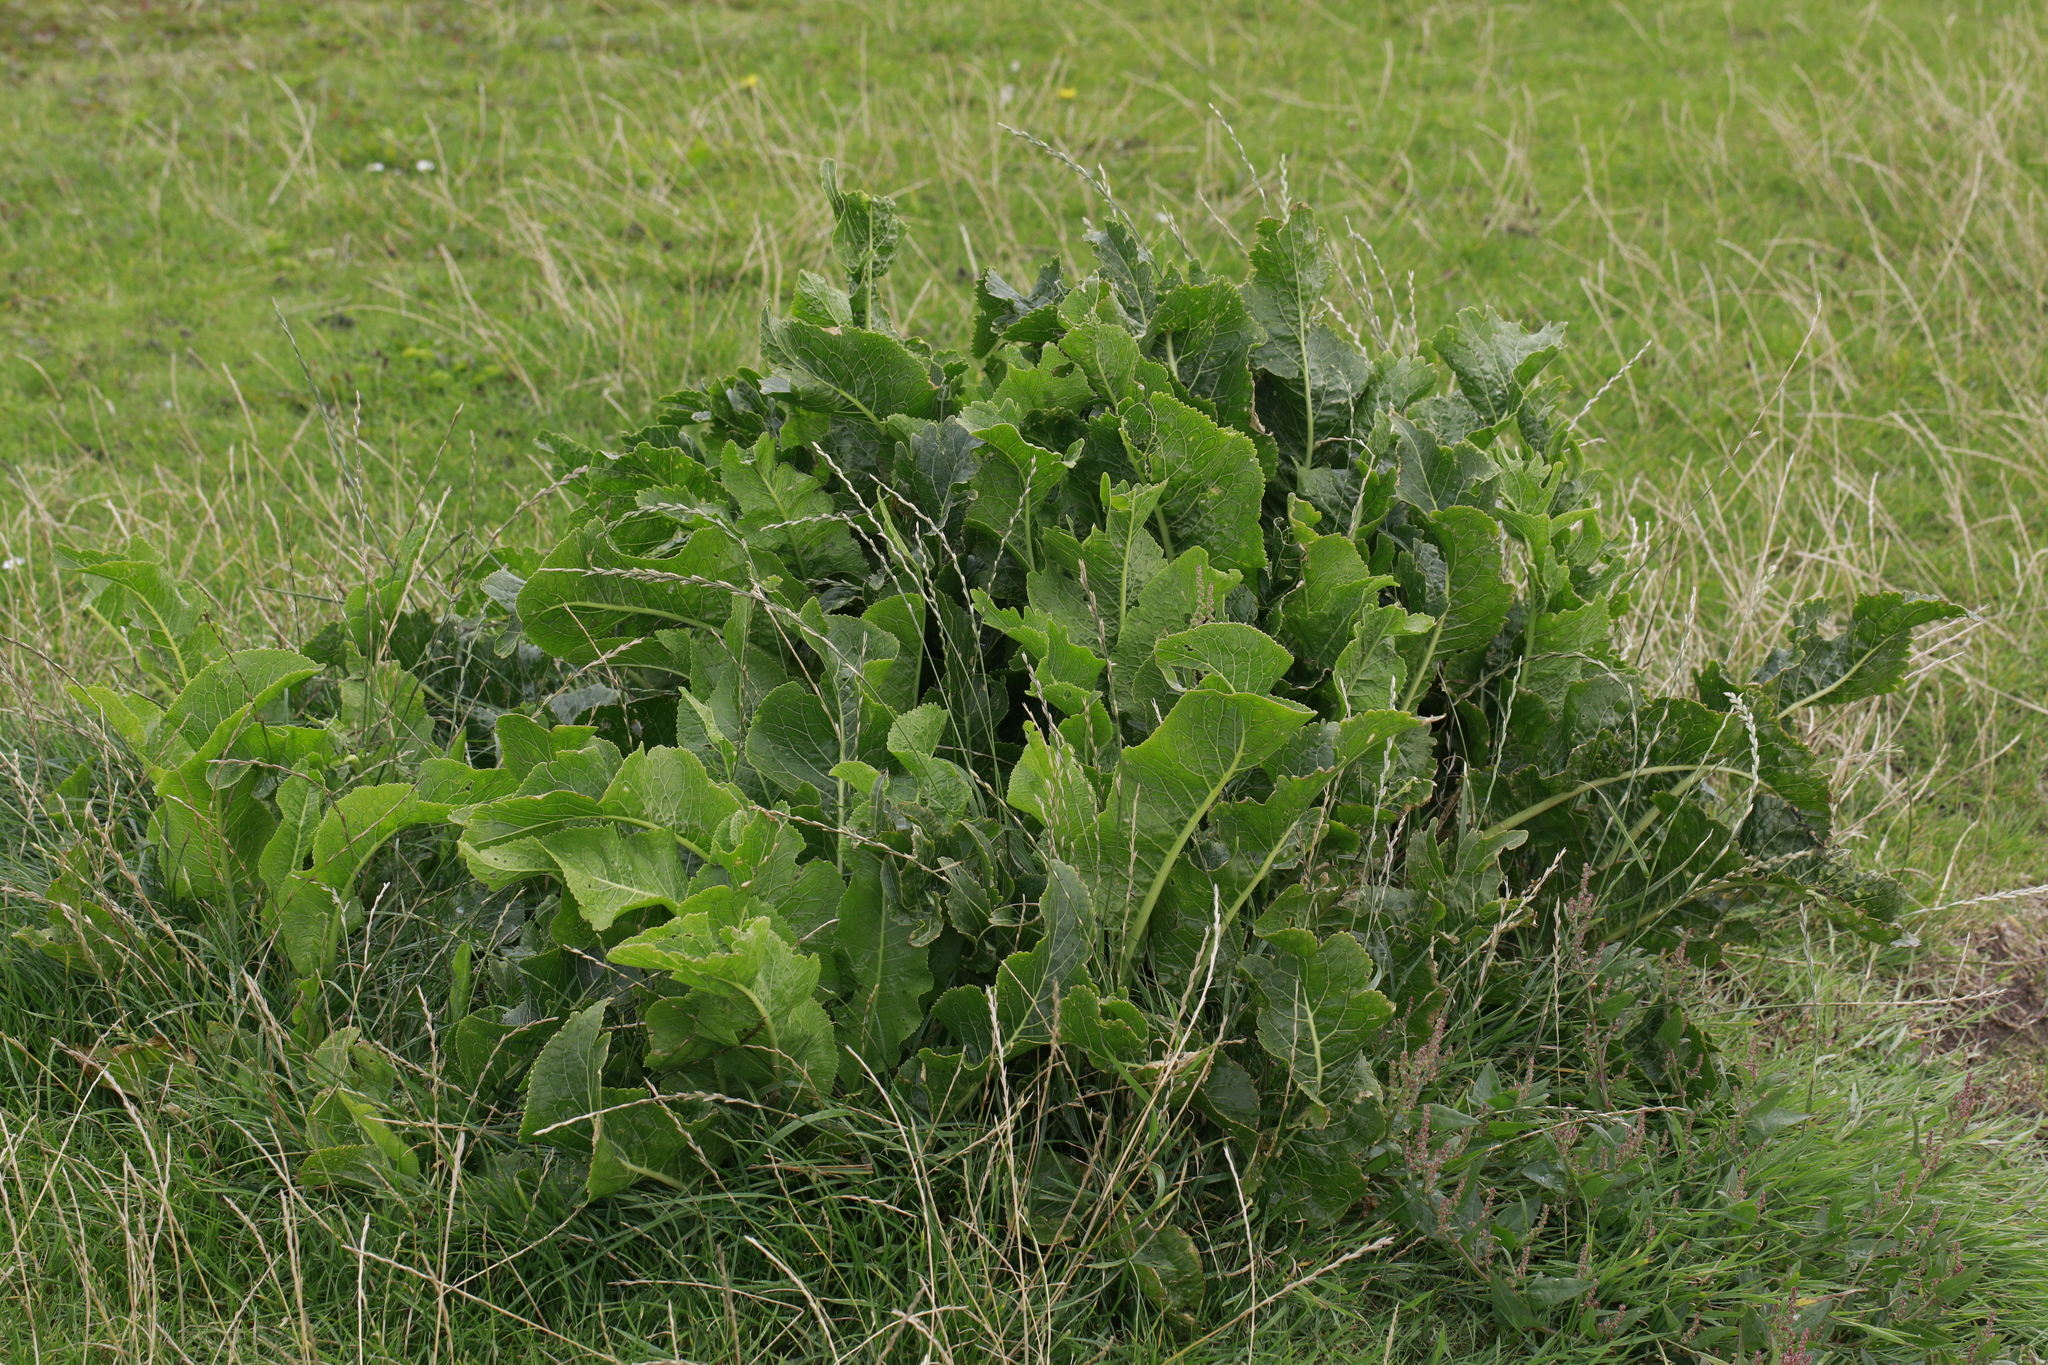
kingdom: Plantae
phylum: Tracheophyta
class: Magnoliopsida
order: Brassicales
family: Brassicaceae
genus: Armoracia
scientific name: Armoracia rusticana
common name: Horseradish
